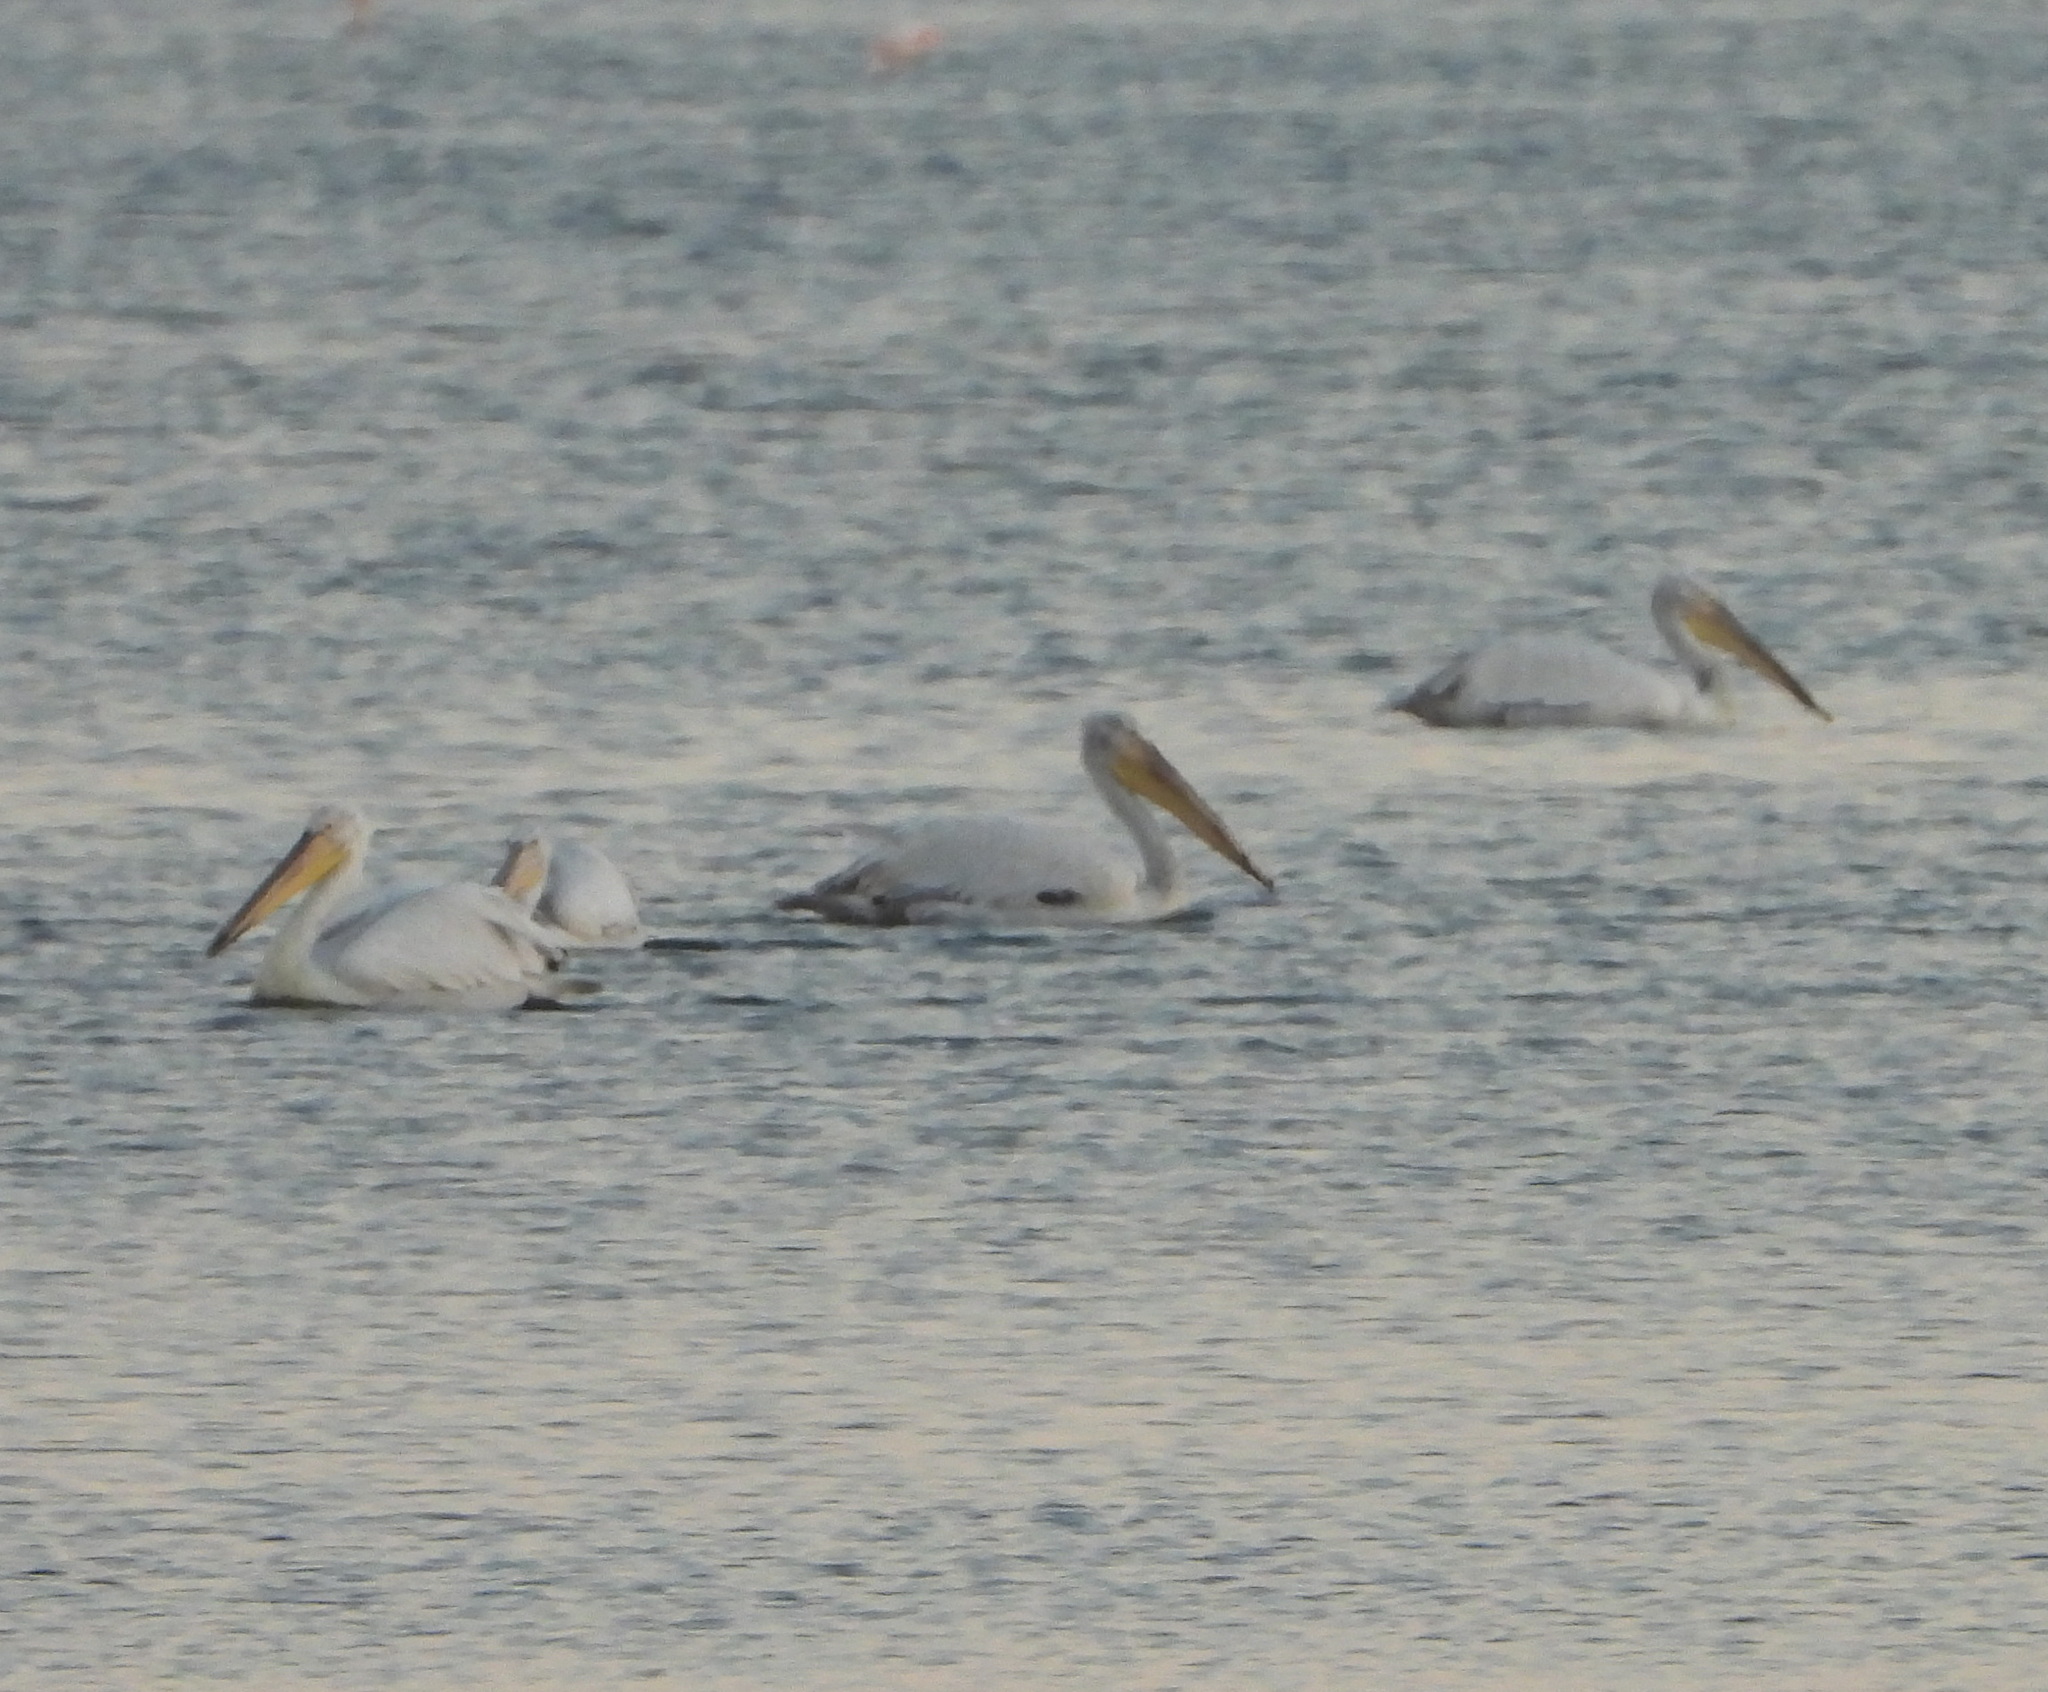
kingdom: Animalia
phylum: Chordata
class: Aves
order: Pelecaniformes
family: Pelecanidae
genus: Pelecanus
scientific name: Pelecanus crispus
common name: Dalmatian pelican
